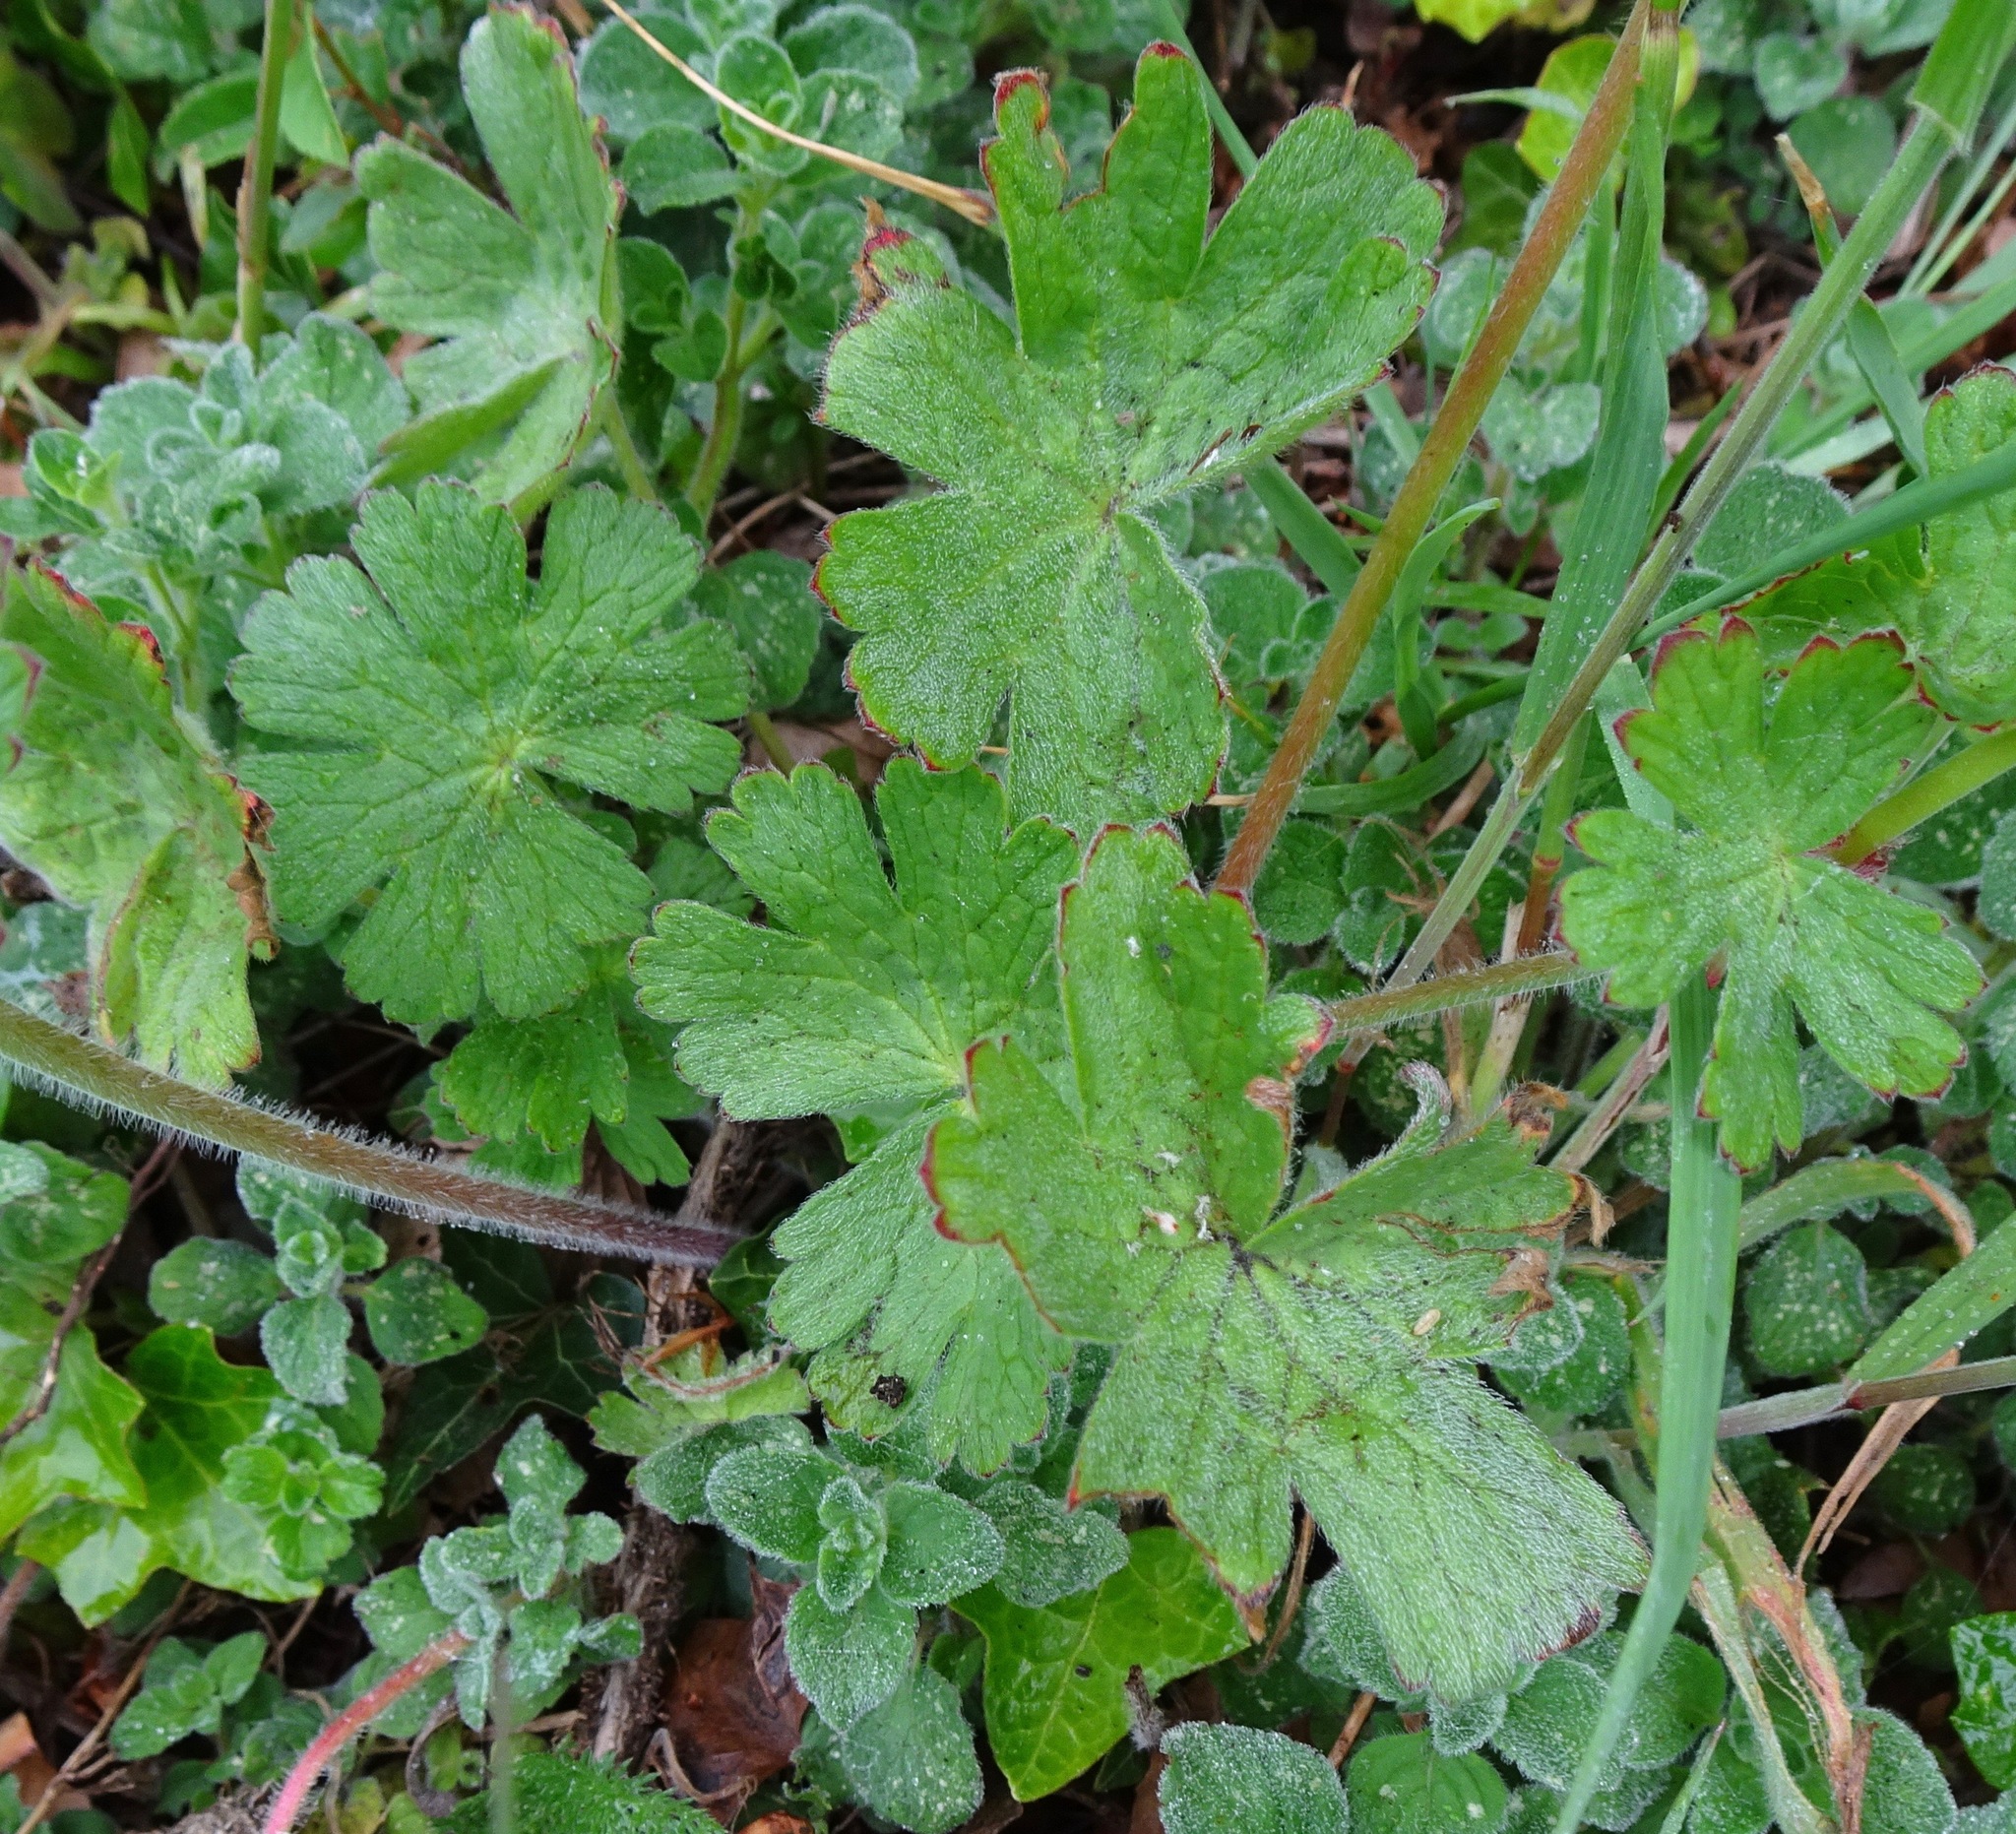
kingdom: Plantae
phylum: Tracheophyta
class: Magnoliopsida
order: Geraniales
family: Geraniaceae
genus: Geranium
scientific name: Geranium pyrenaicum
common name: Hedgerow crane's-bill
